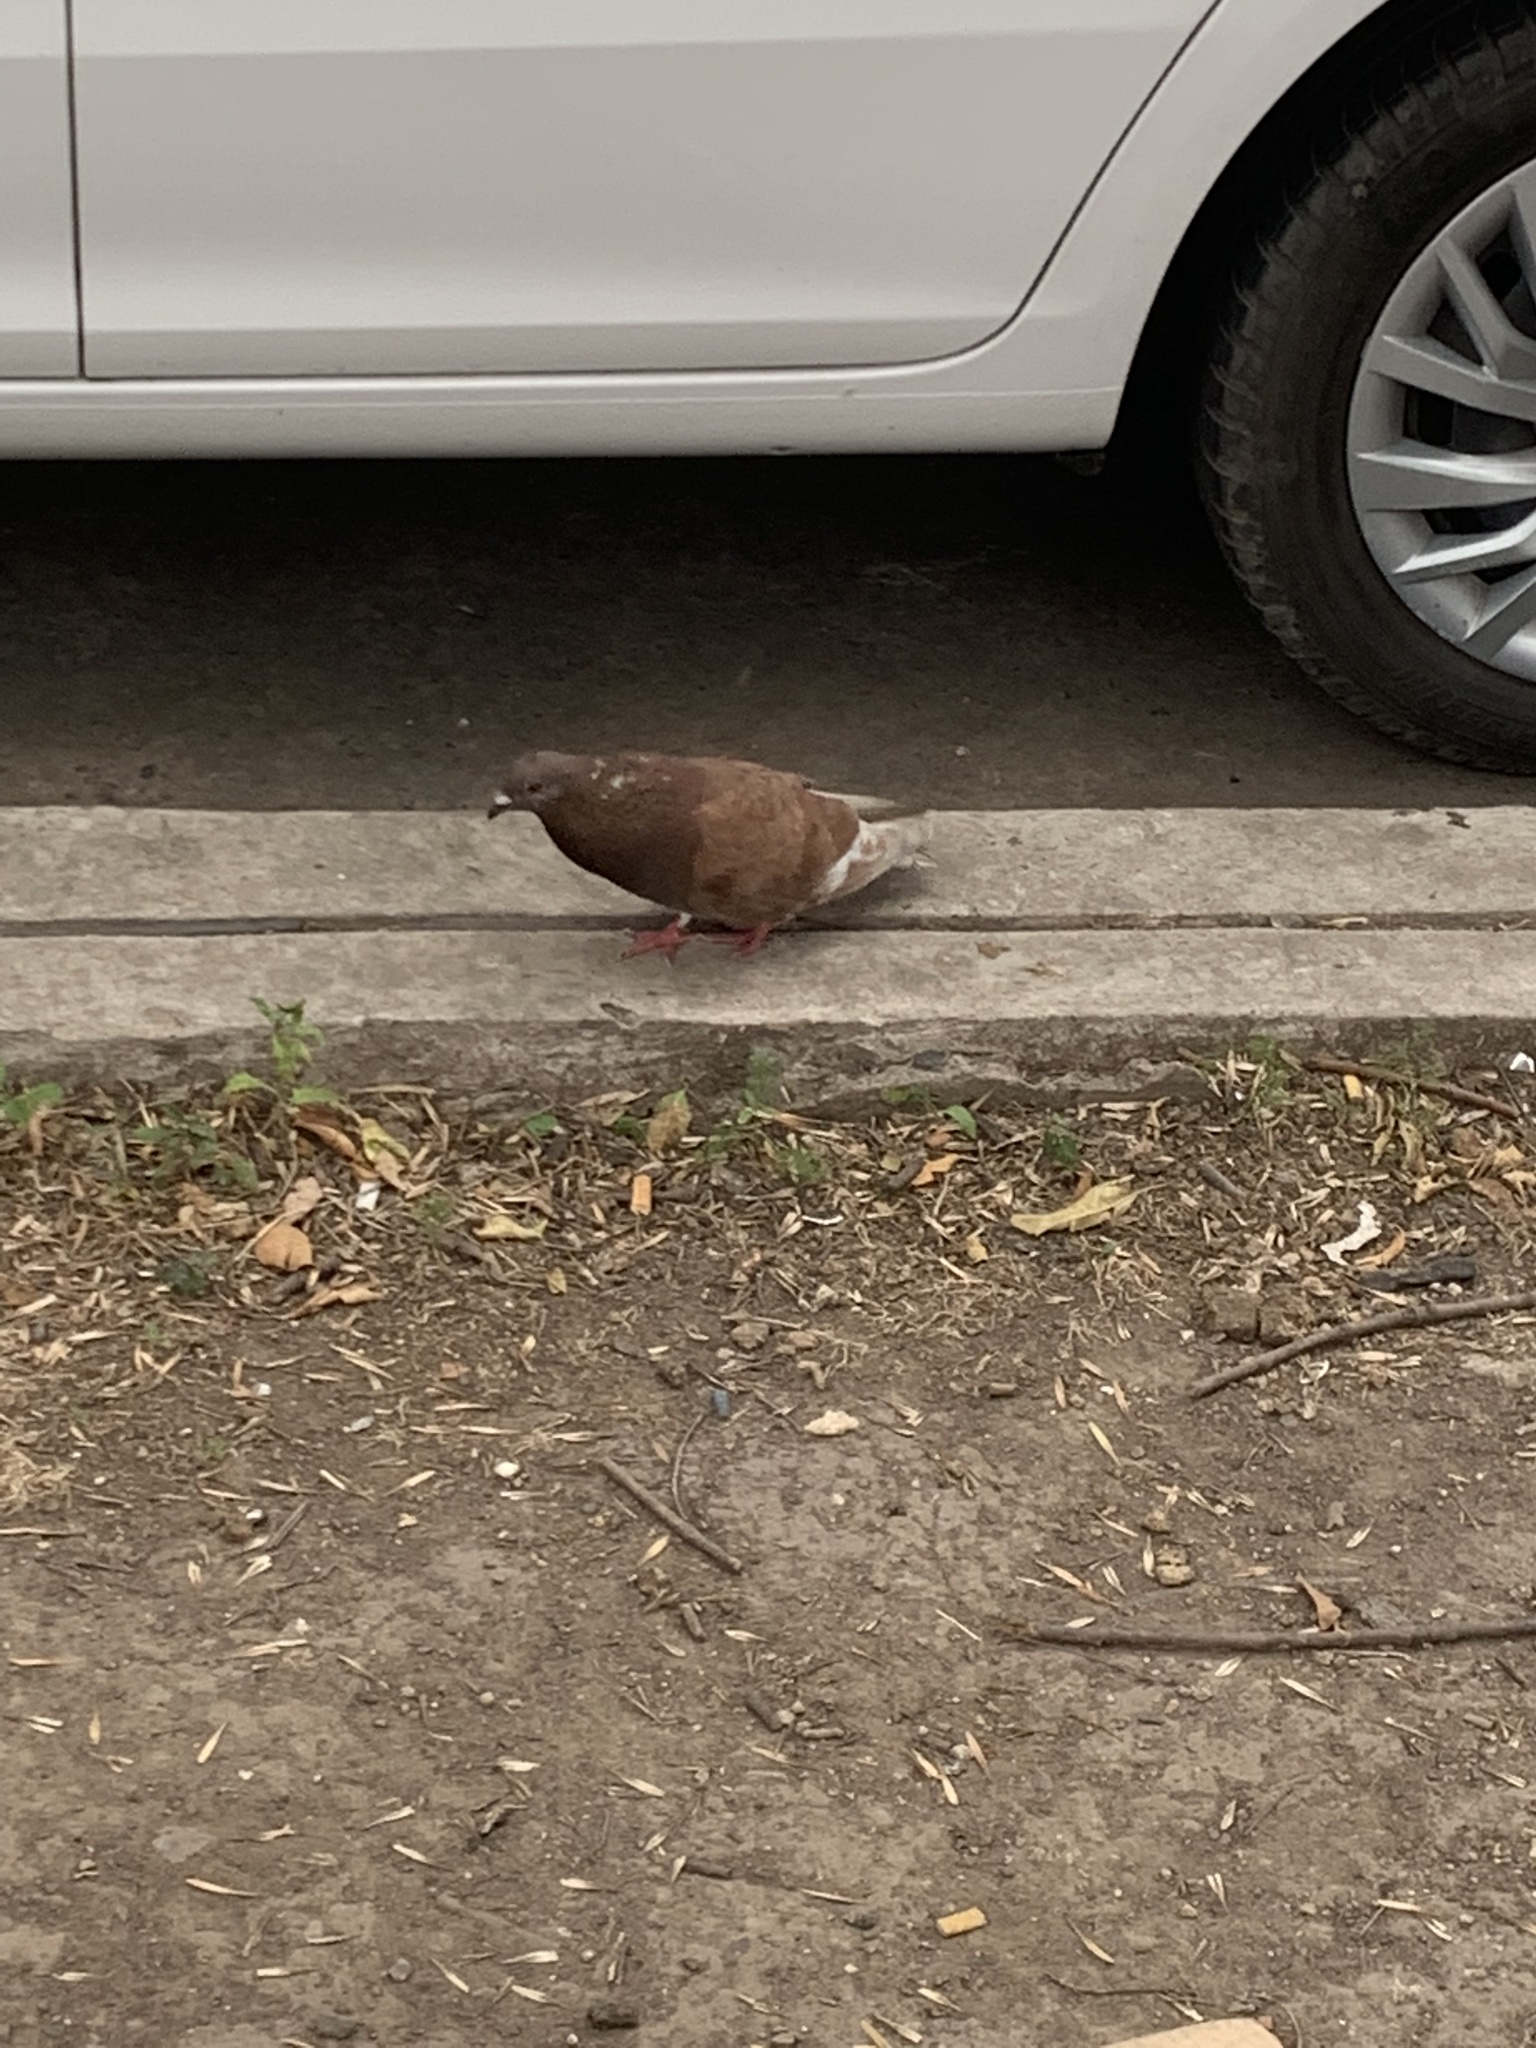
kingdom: Animalia
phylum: Chordata
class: Aves
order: Columbiformes
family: Columbidae
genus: Columba
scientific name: Columba livia
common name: Rock pigeon
